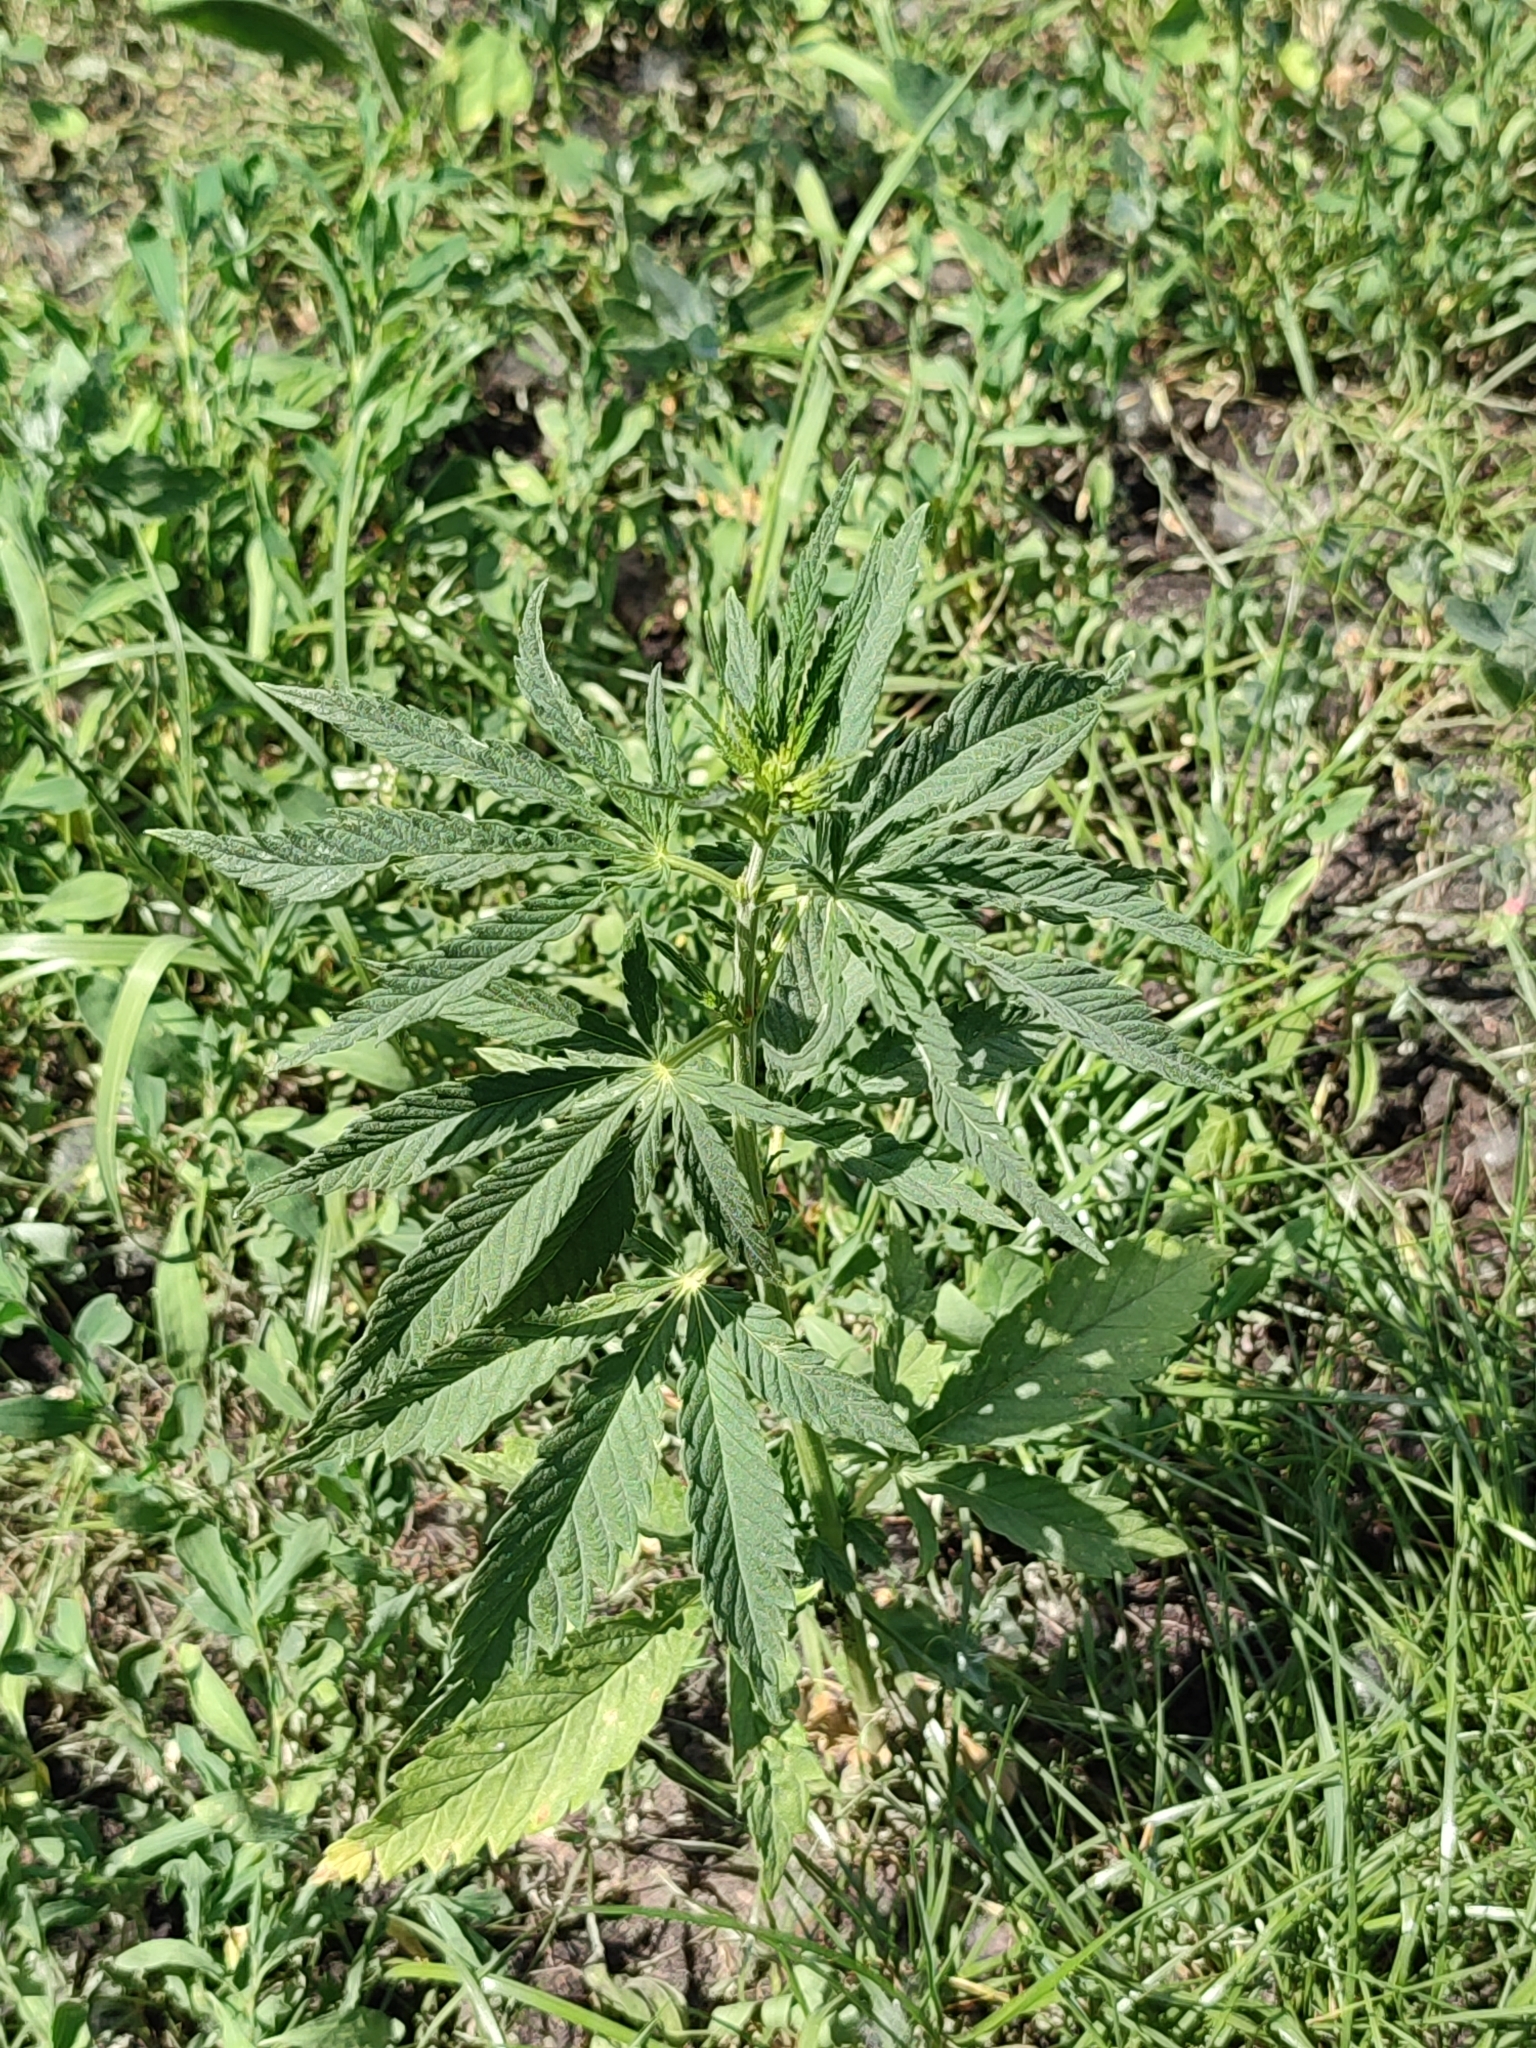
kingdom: Plantae
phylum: Tracheophyta
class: Magnoliopsida
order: Rosales
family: Cannabaceae
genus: Cannabis
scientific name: Cannabis sativa
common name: Hemp
